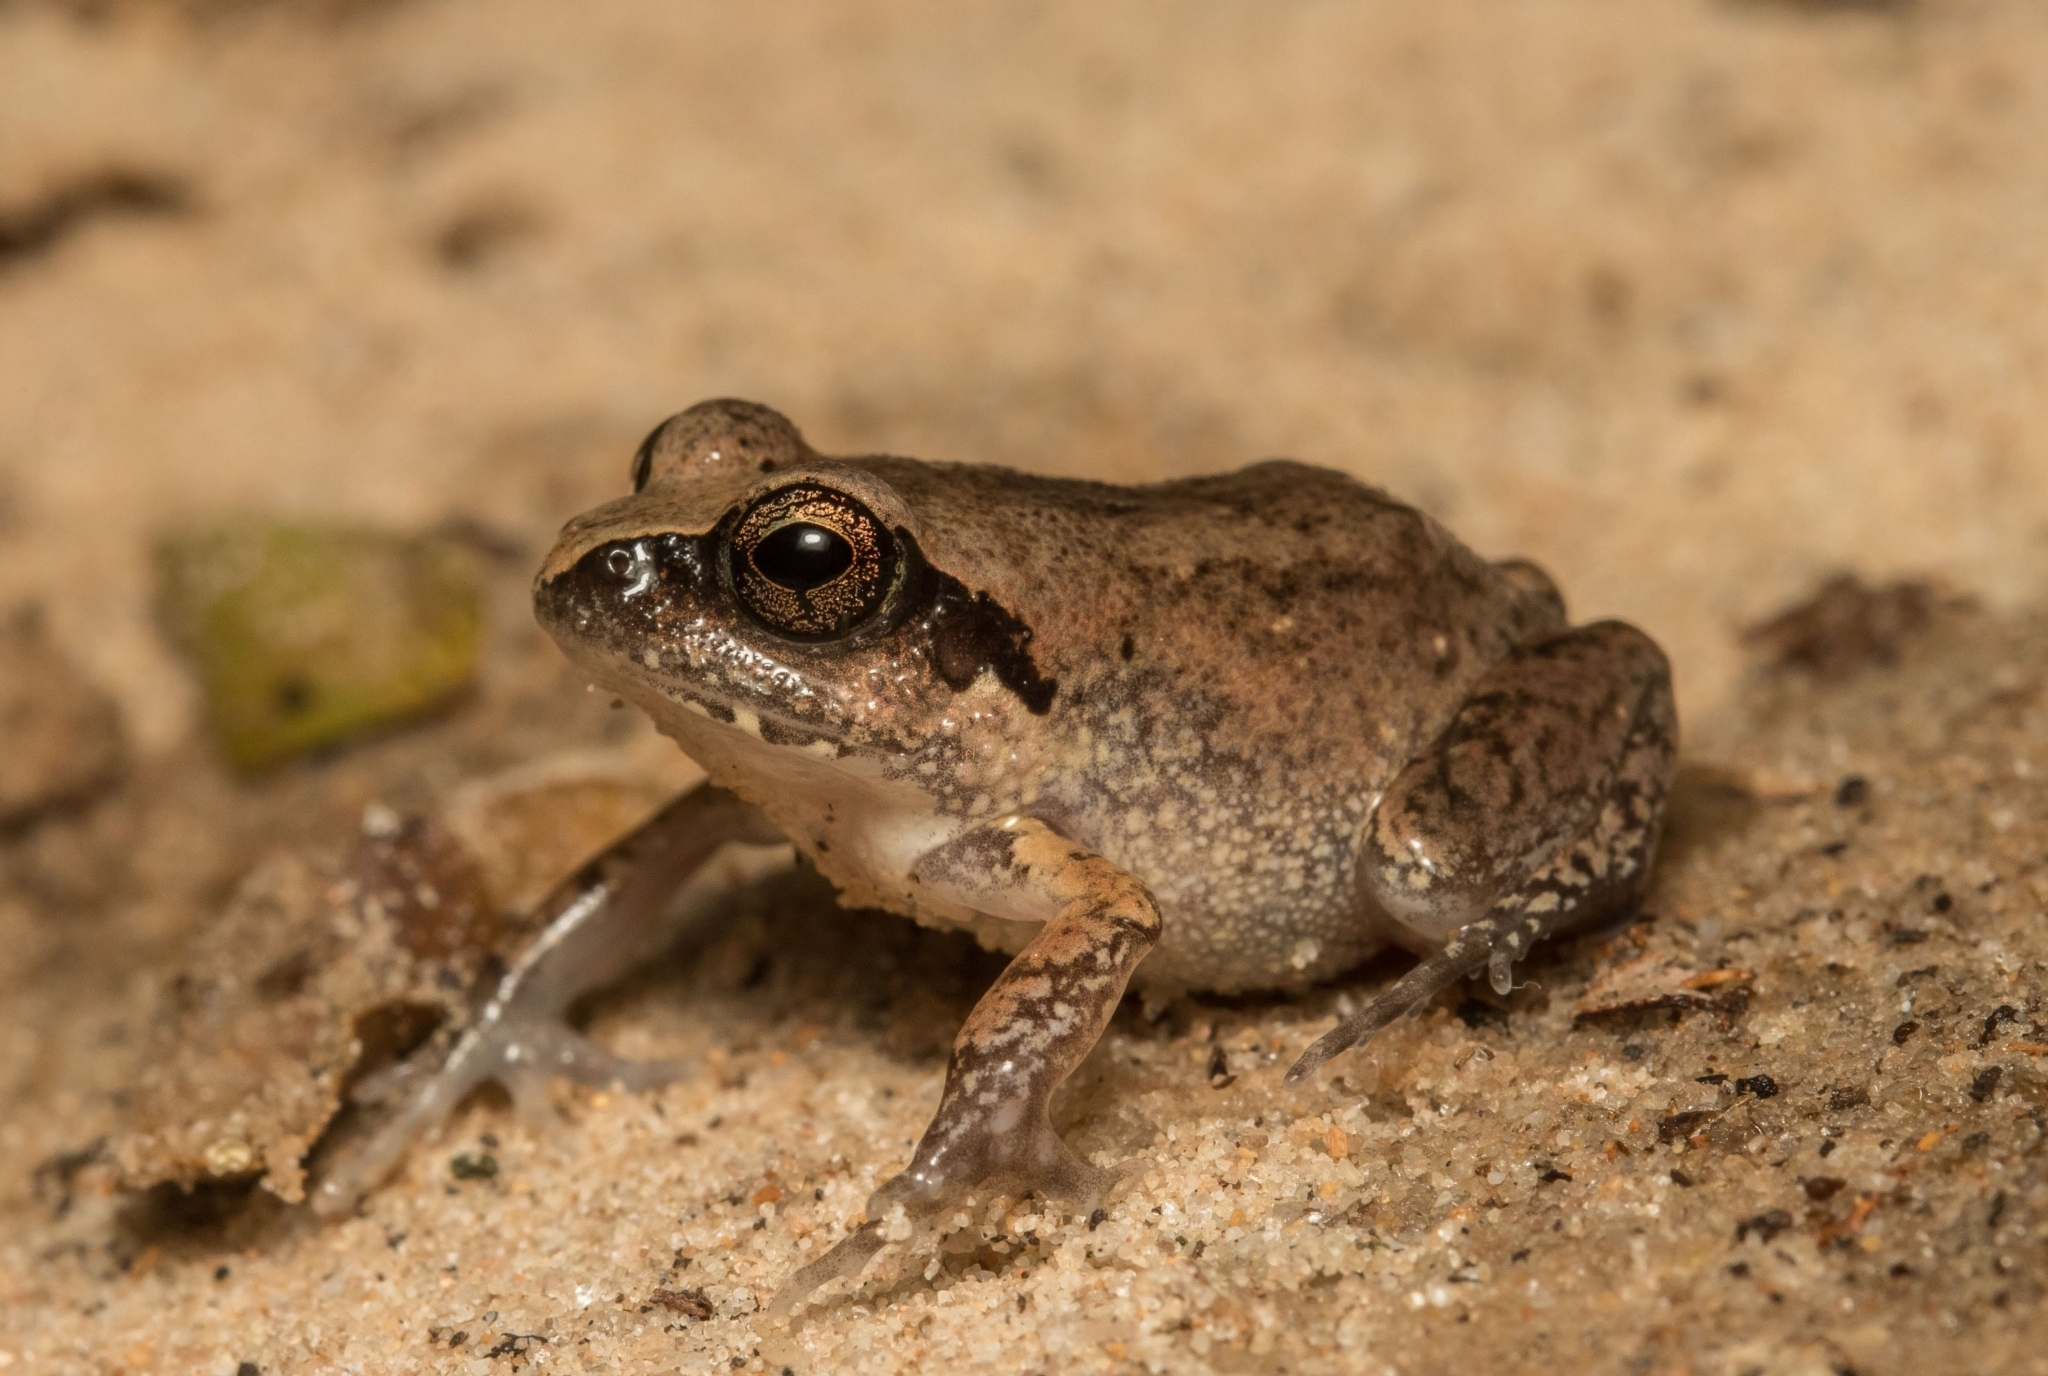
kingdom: Animalia
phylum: Chordata
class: Amphibia
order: Anura
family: Arthroleptidae
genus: Arthroleptis
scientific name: Arthroleptis stenodactylus
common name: Dune squeaker
